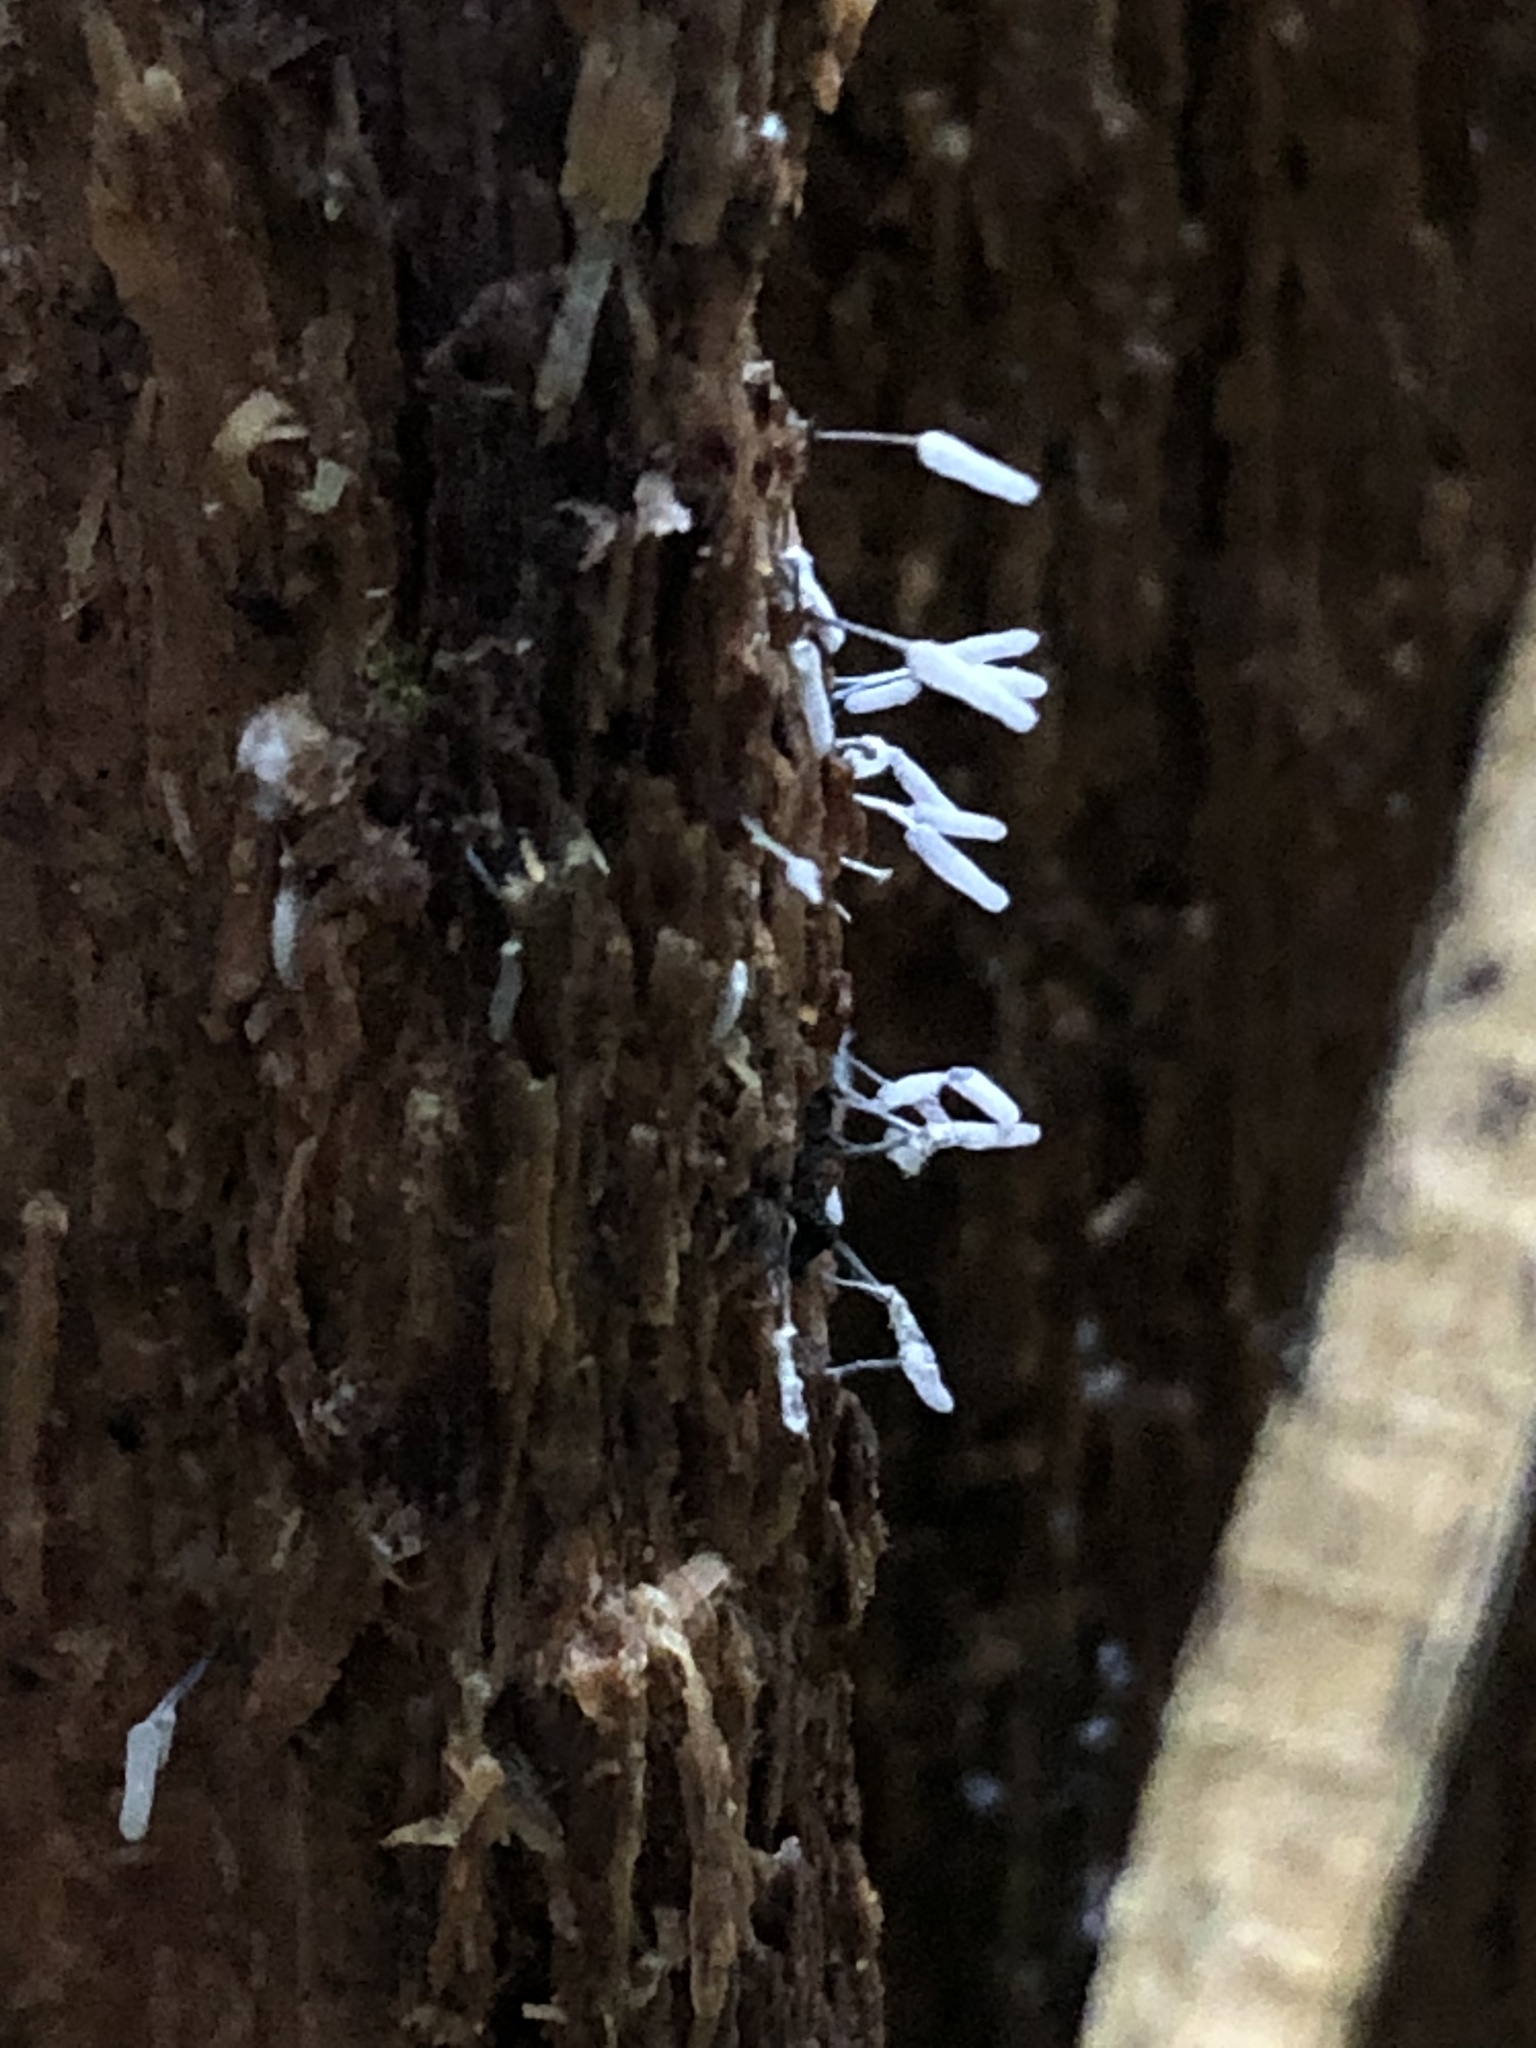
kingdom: Protozoa
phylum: Mycetozoa
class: Myxomycetes
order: Trichiales
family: Arcyriaceae
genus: Arcyria
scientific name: Arcyria cinerea
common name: White carnival candy slime mold
